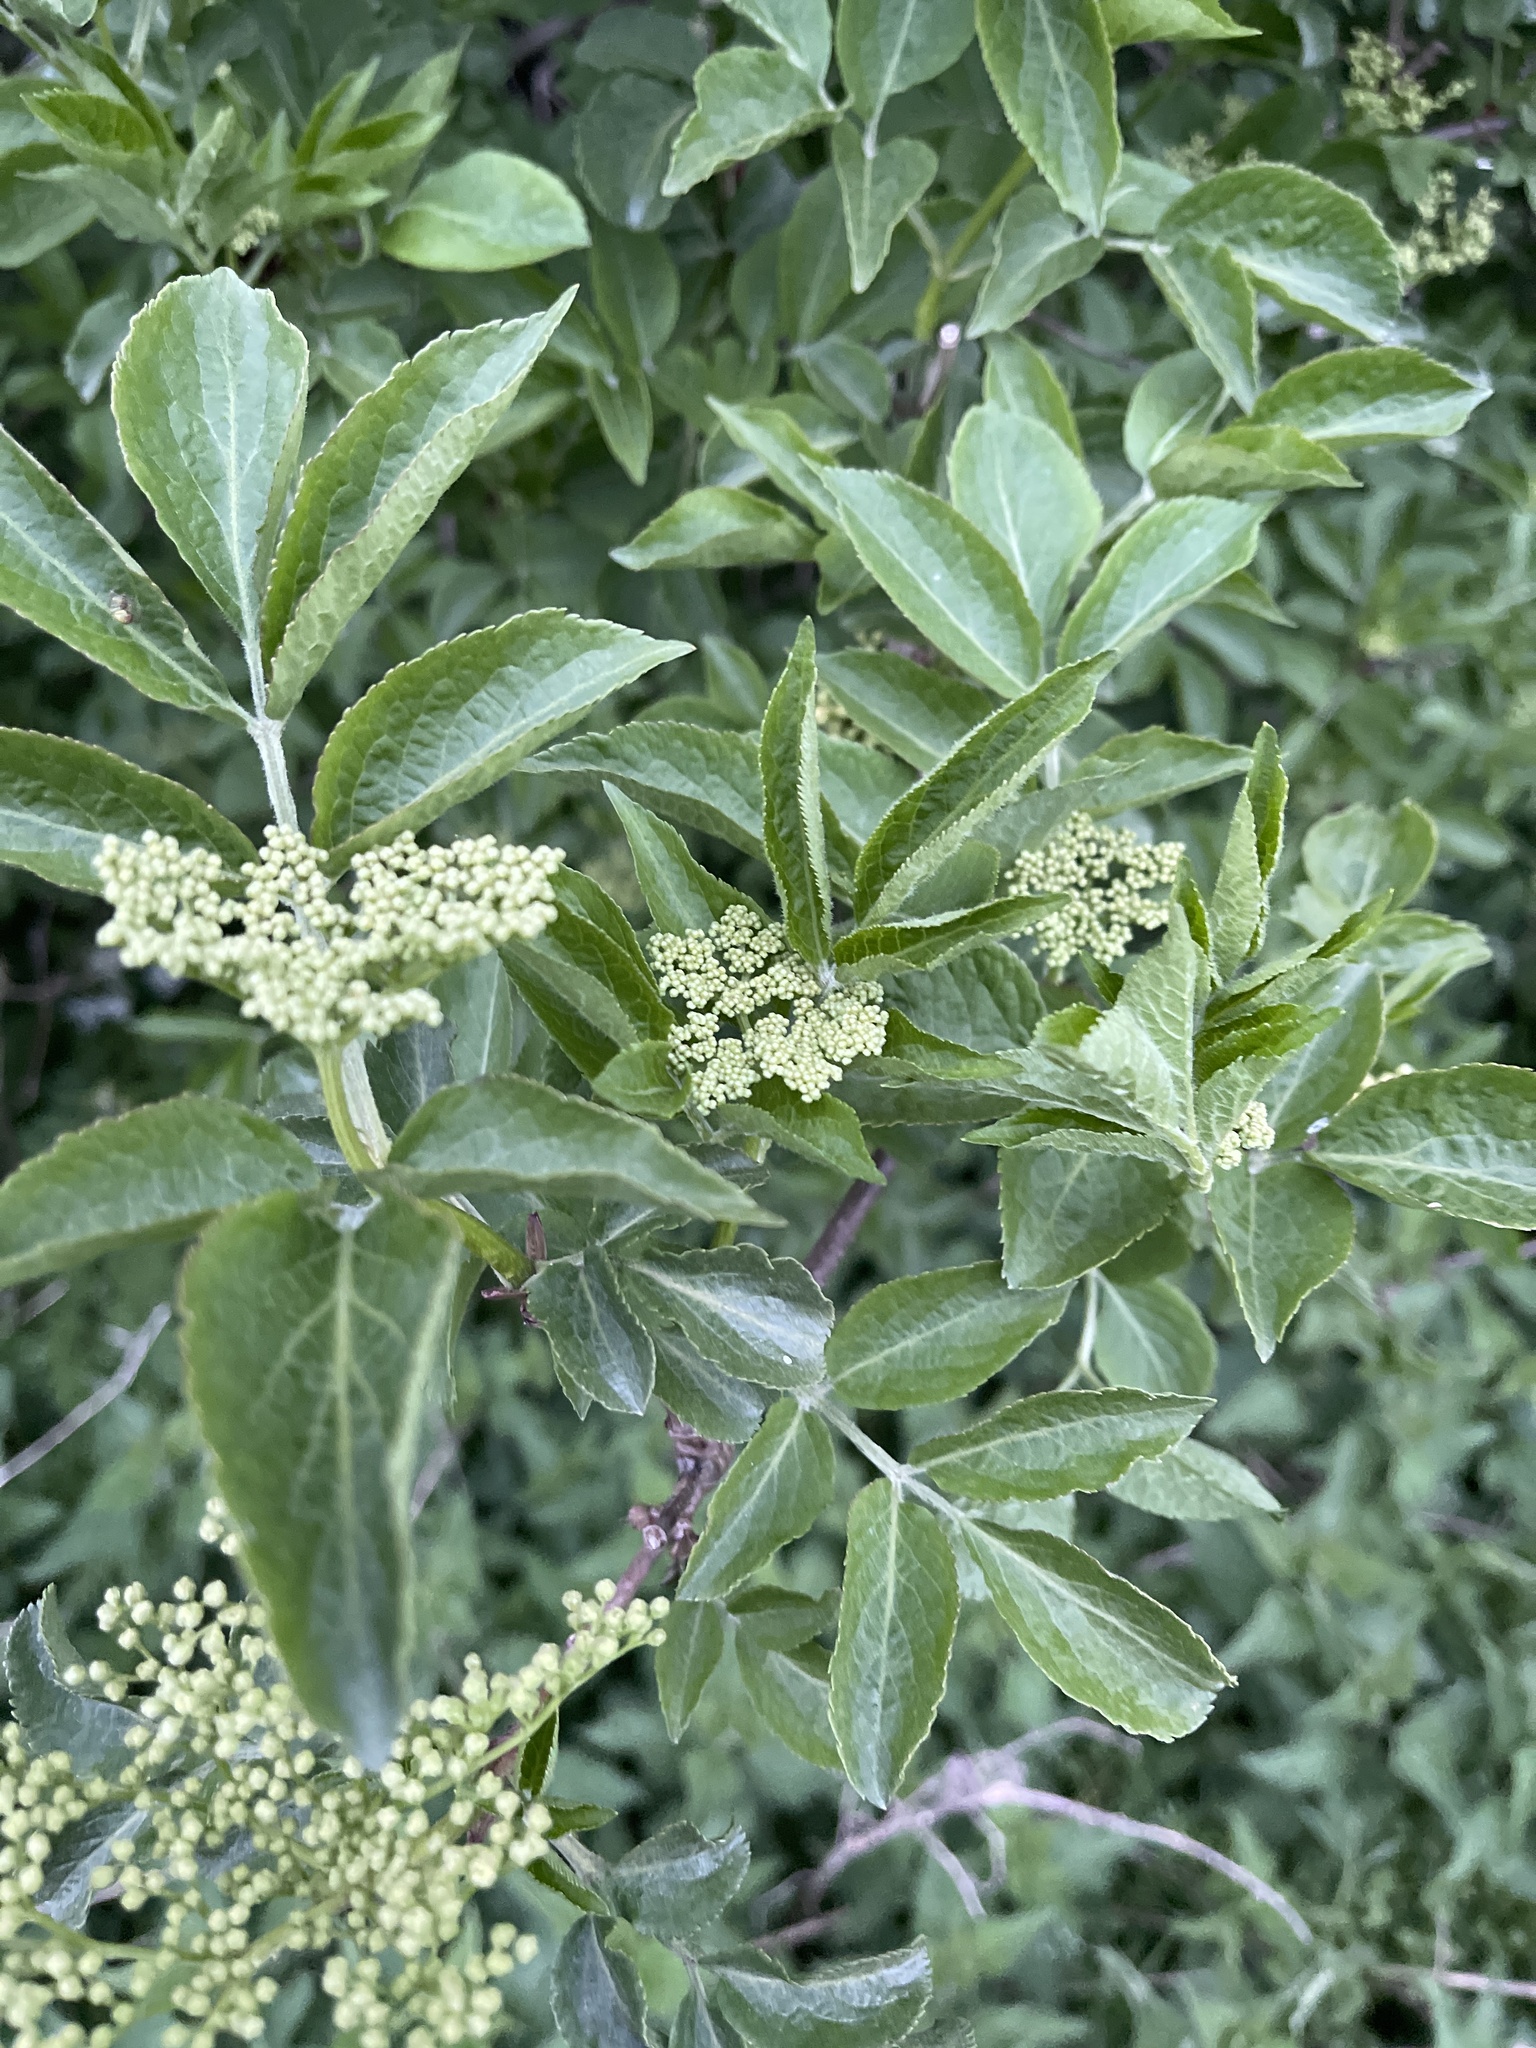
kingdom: Plantae
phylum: Tracheophyta
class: Magnoliopsida
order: Dipsacales
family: Viburnaceae
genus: Sambucus
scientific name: Sambucus nigra
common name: Elder
